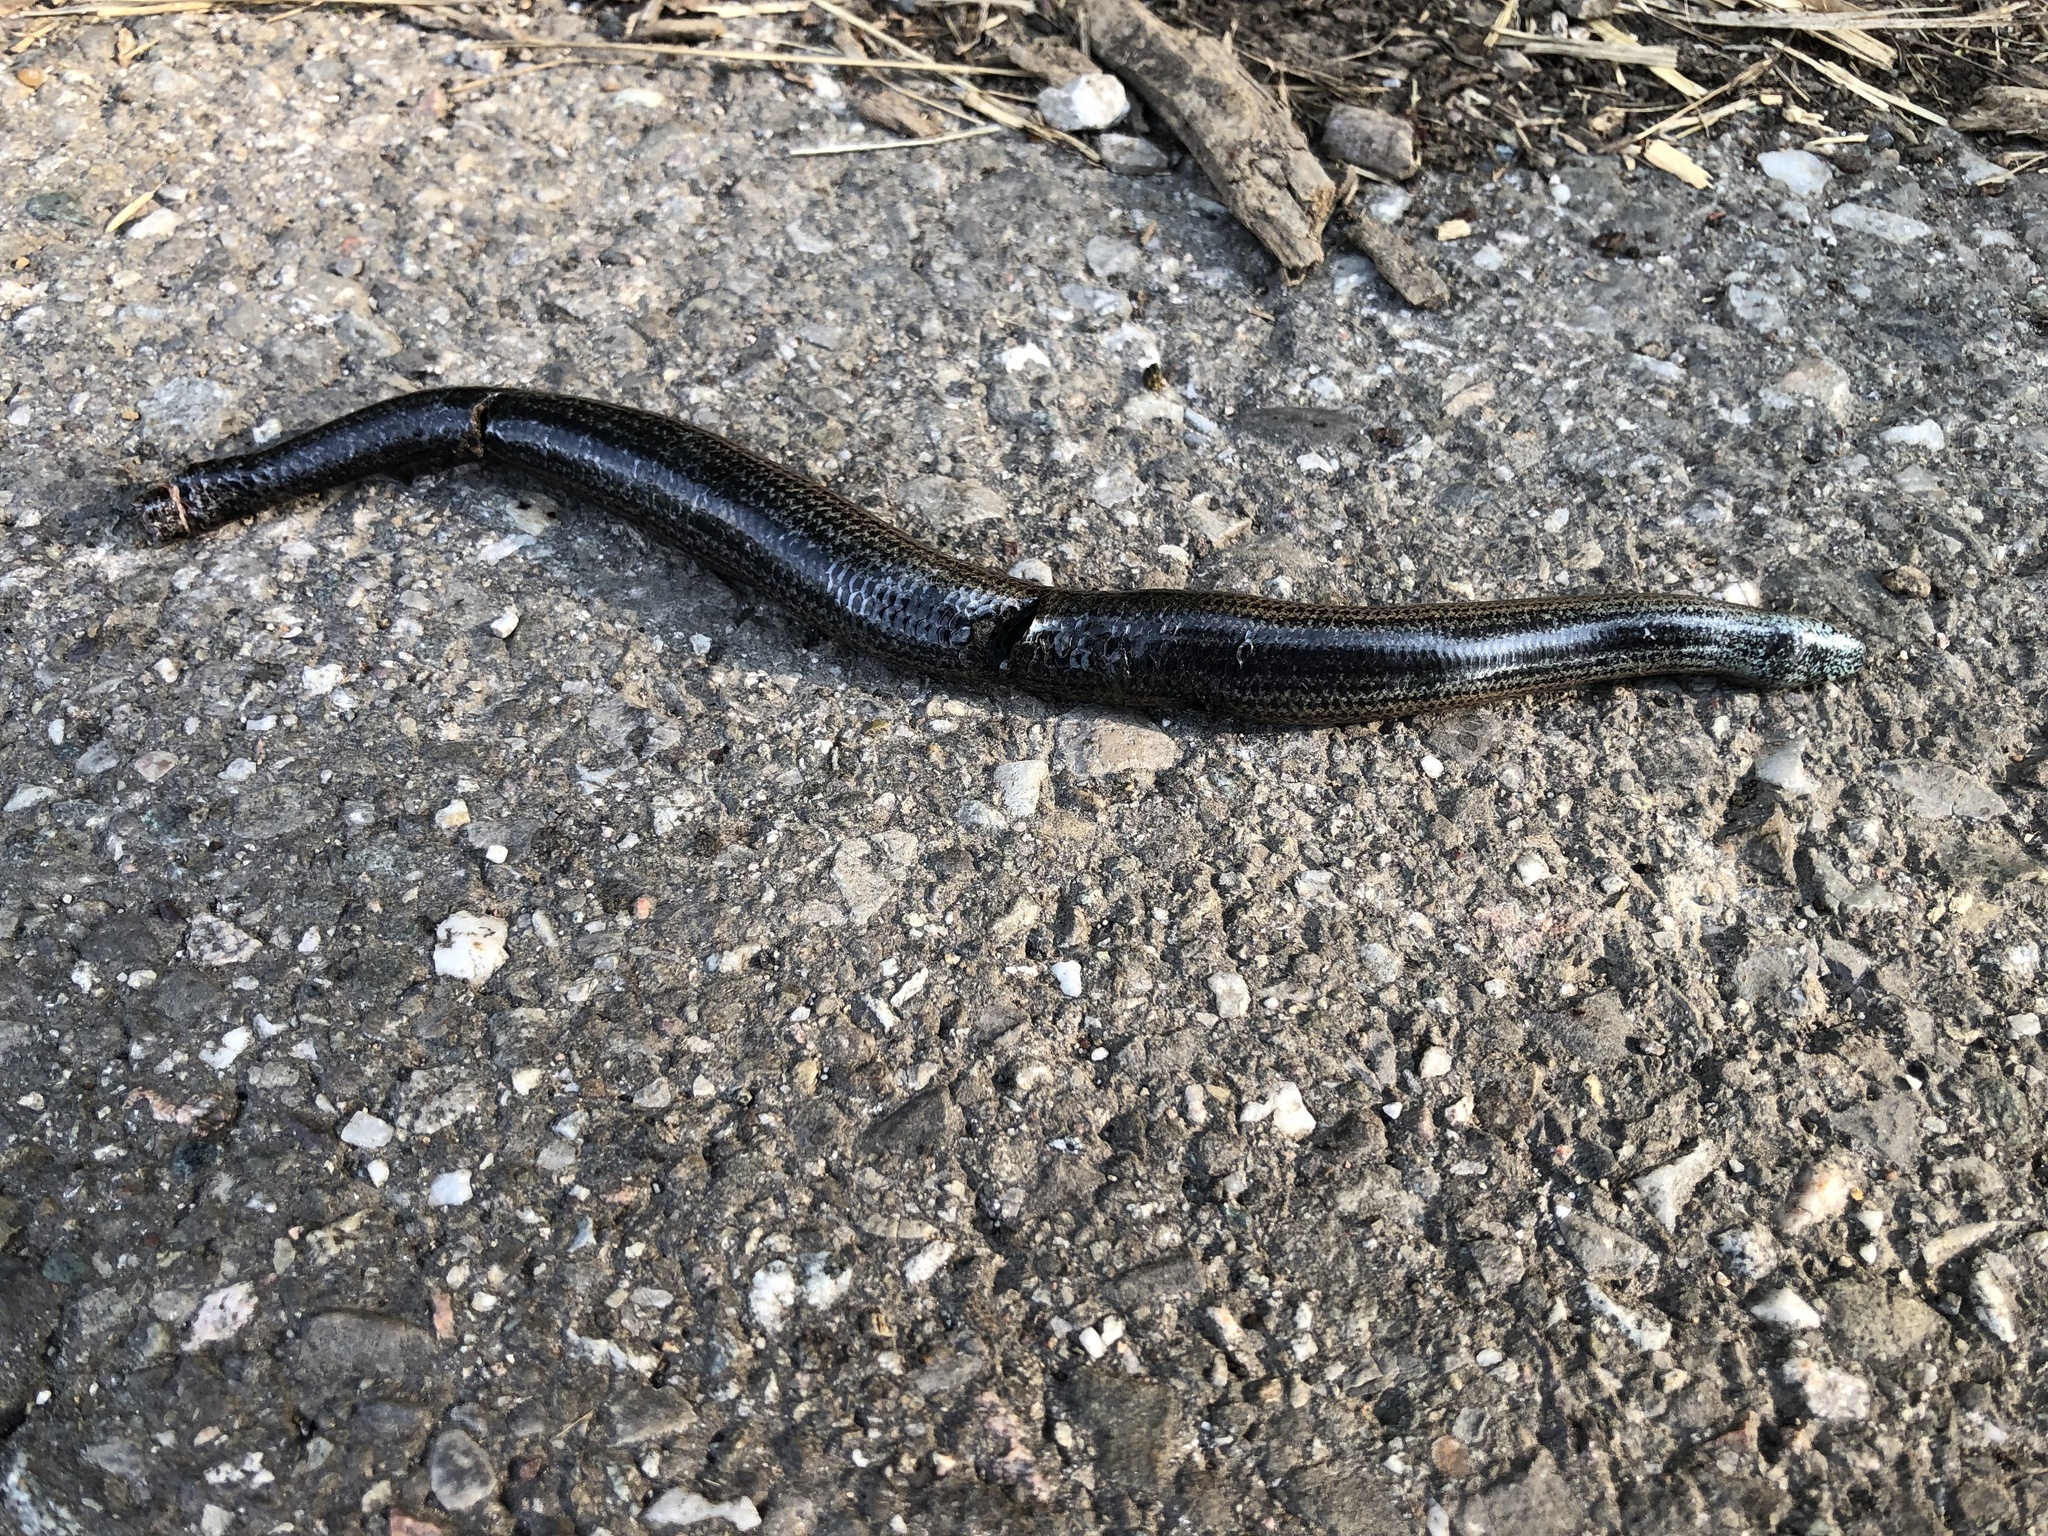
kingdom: Animalia
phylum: Chordata
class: Squamata
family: Anguidae
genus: Anguis
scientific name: Anguis fragilis
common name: Slow worm
